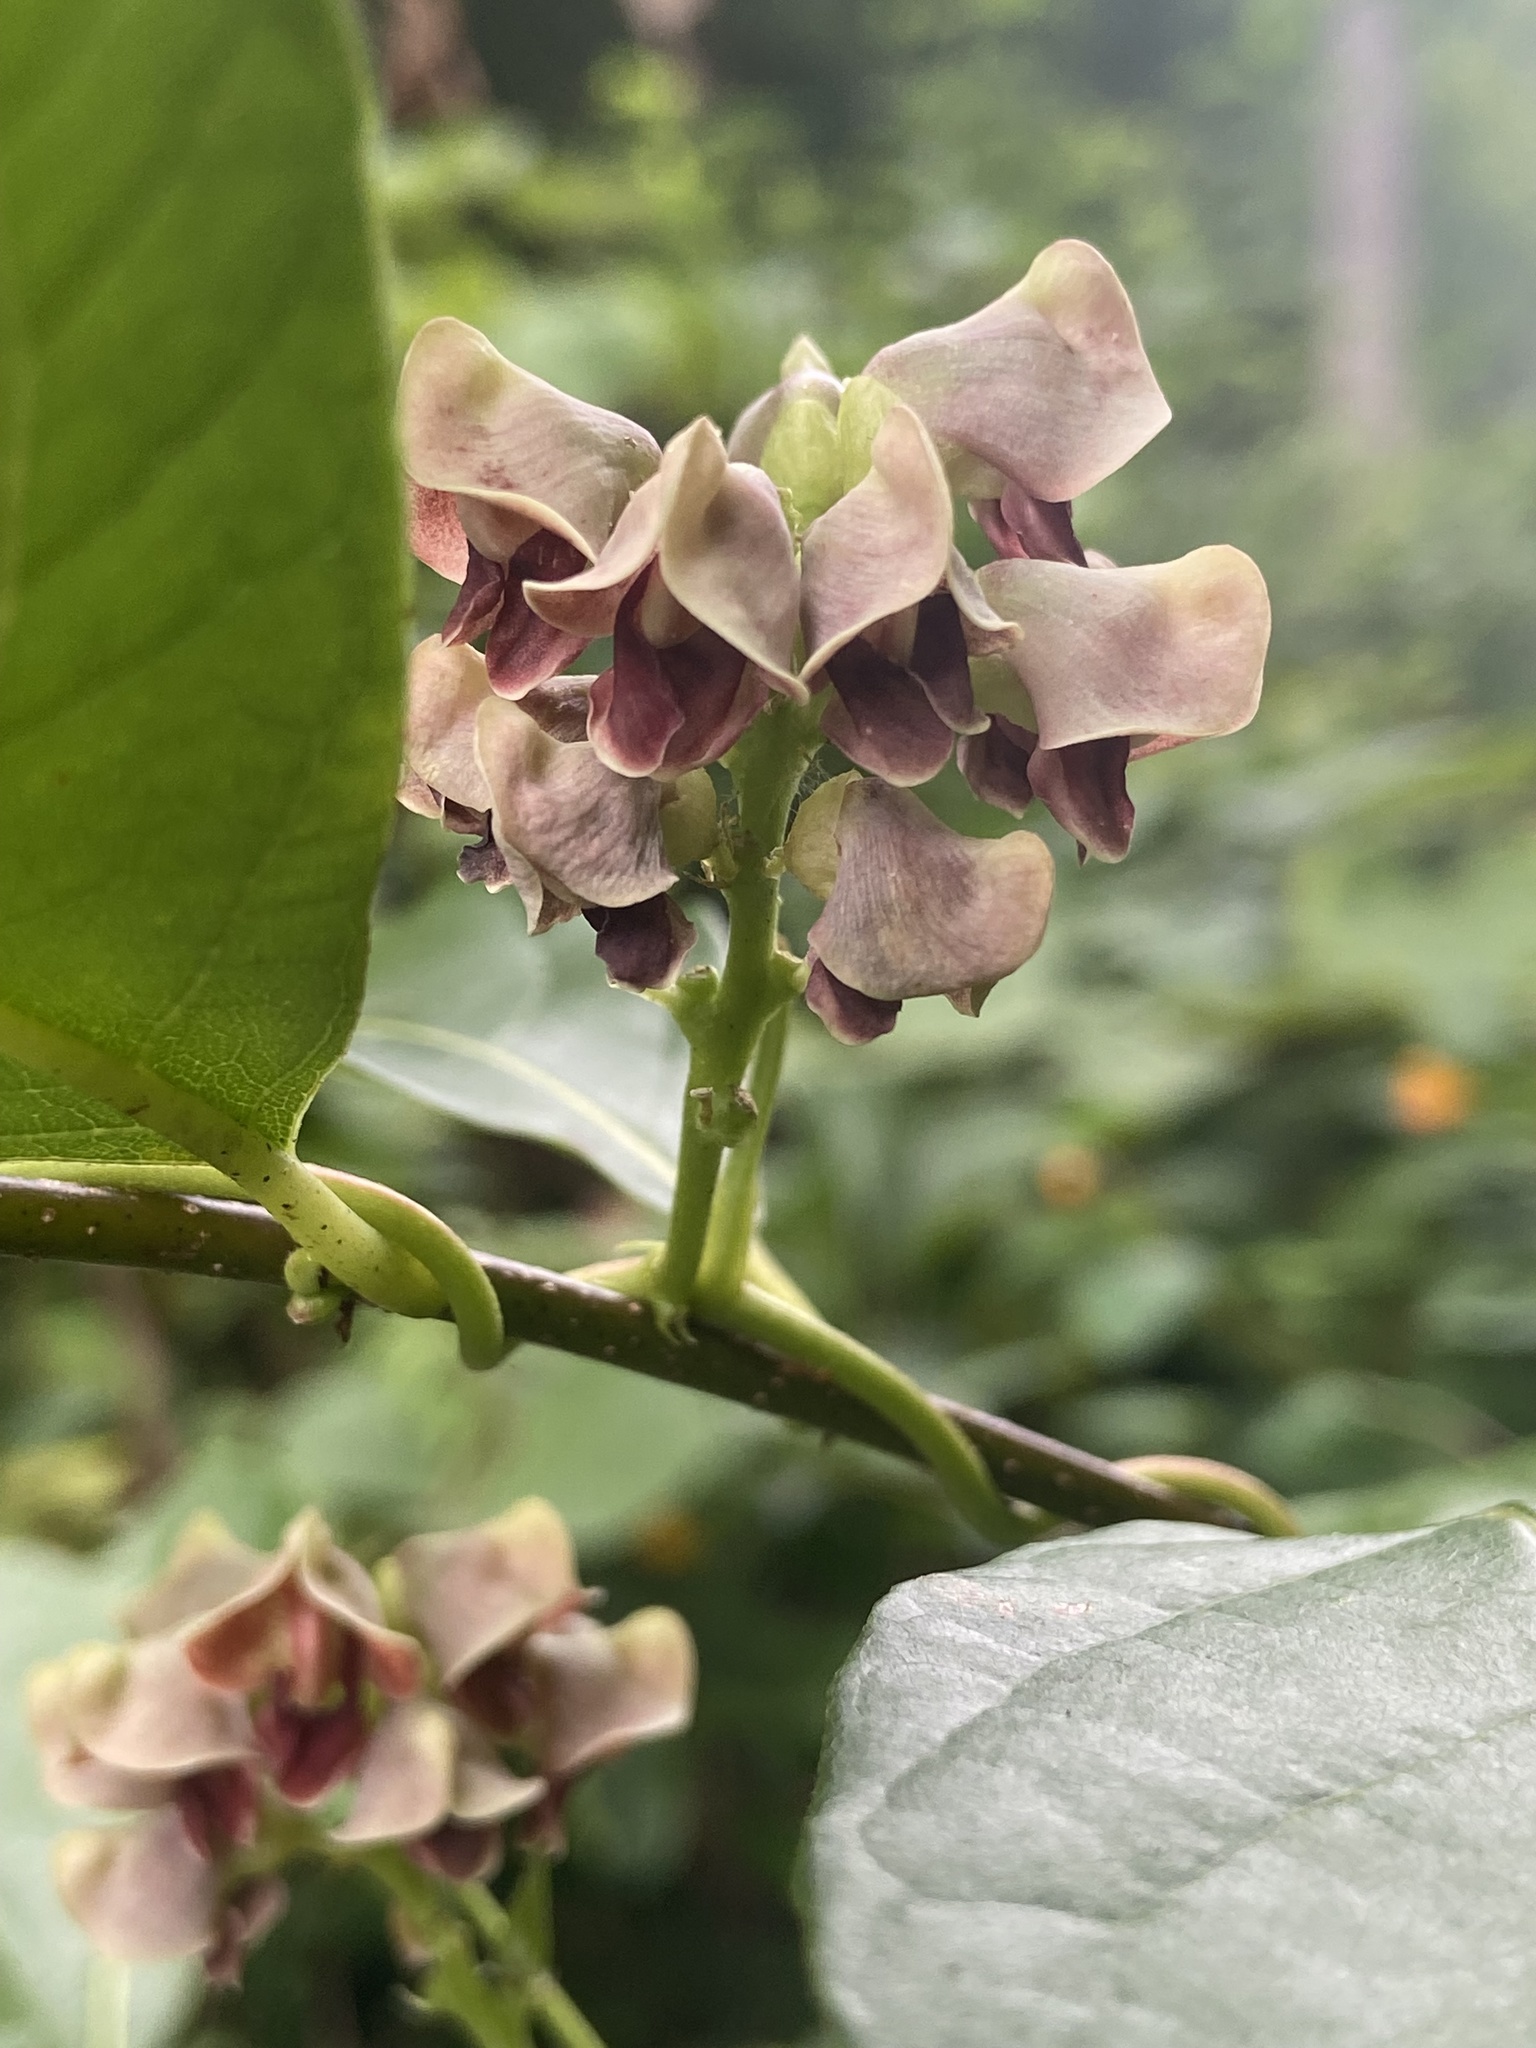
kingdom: Plantae
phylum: Tracheophyta
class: Magnoliopsida
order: Fabales
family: Fabaceae
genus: Apios
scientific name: Apios americana
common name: American potato-bean
